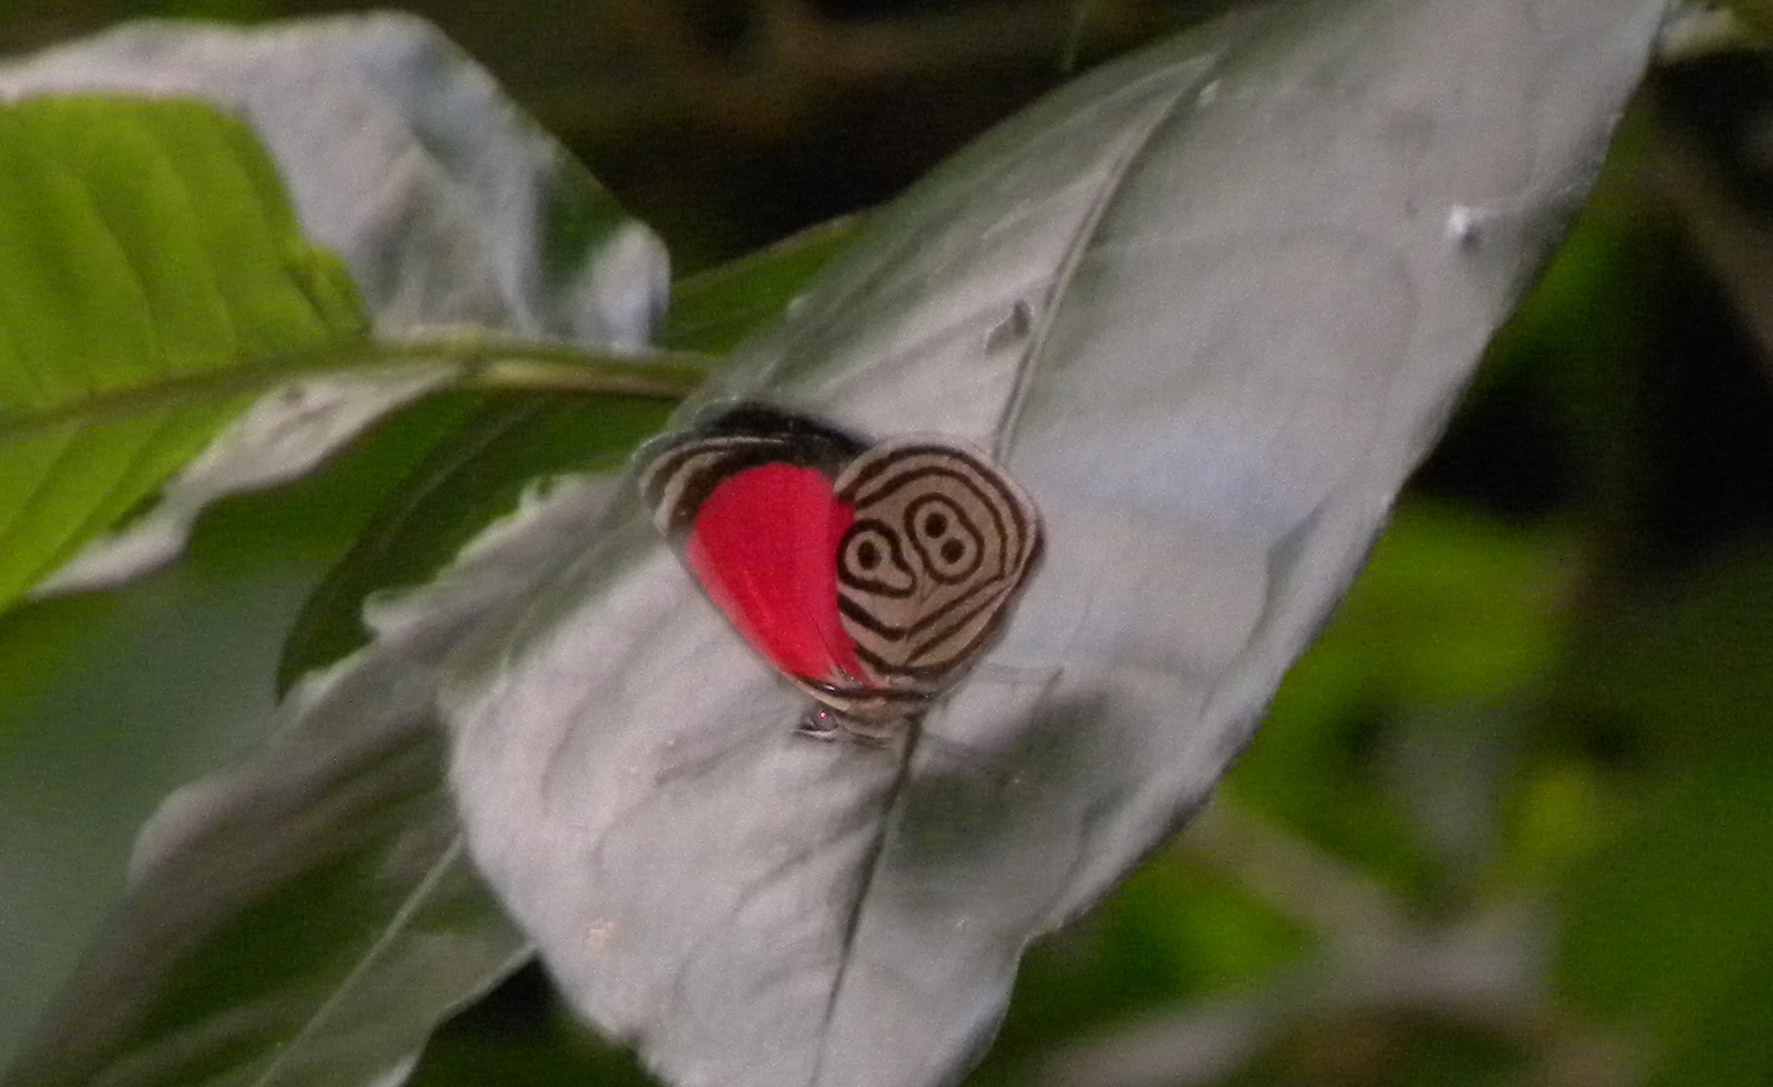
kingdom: Animalia
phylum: Arthropoda
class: Insecta
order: Lepidoptera
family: Nymphalidae
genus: Diaethria
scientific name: Diaethria clymena
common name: Widespread eighty-eight
